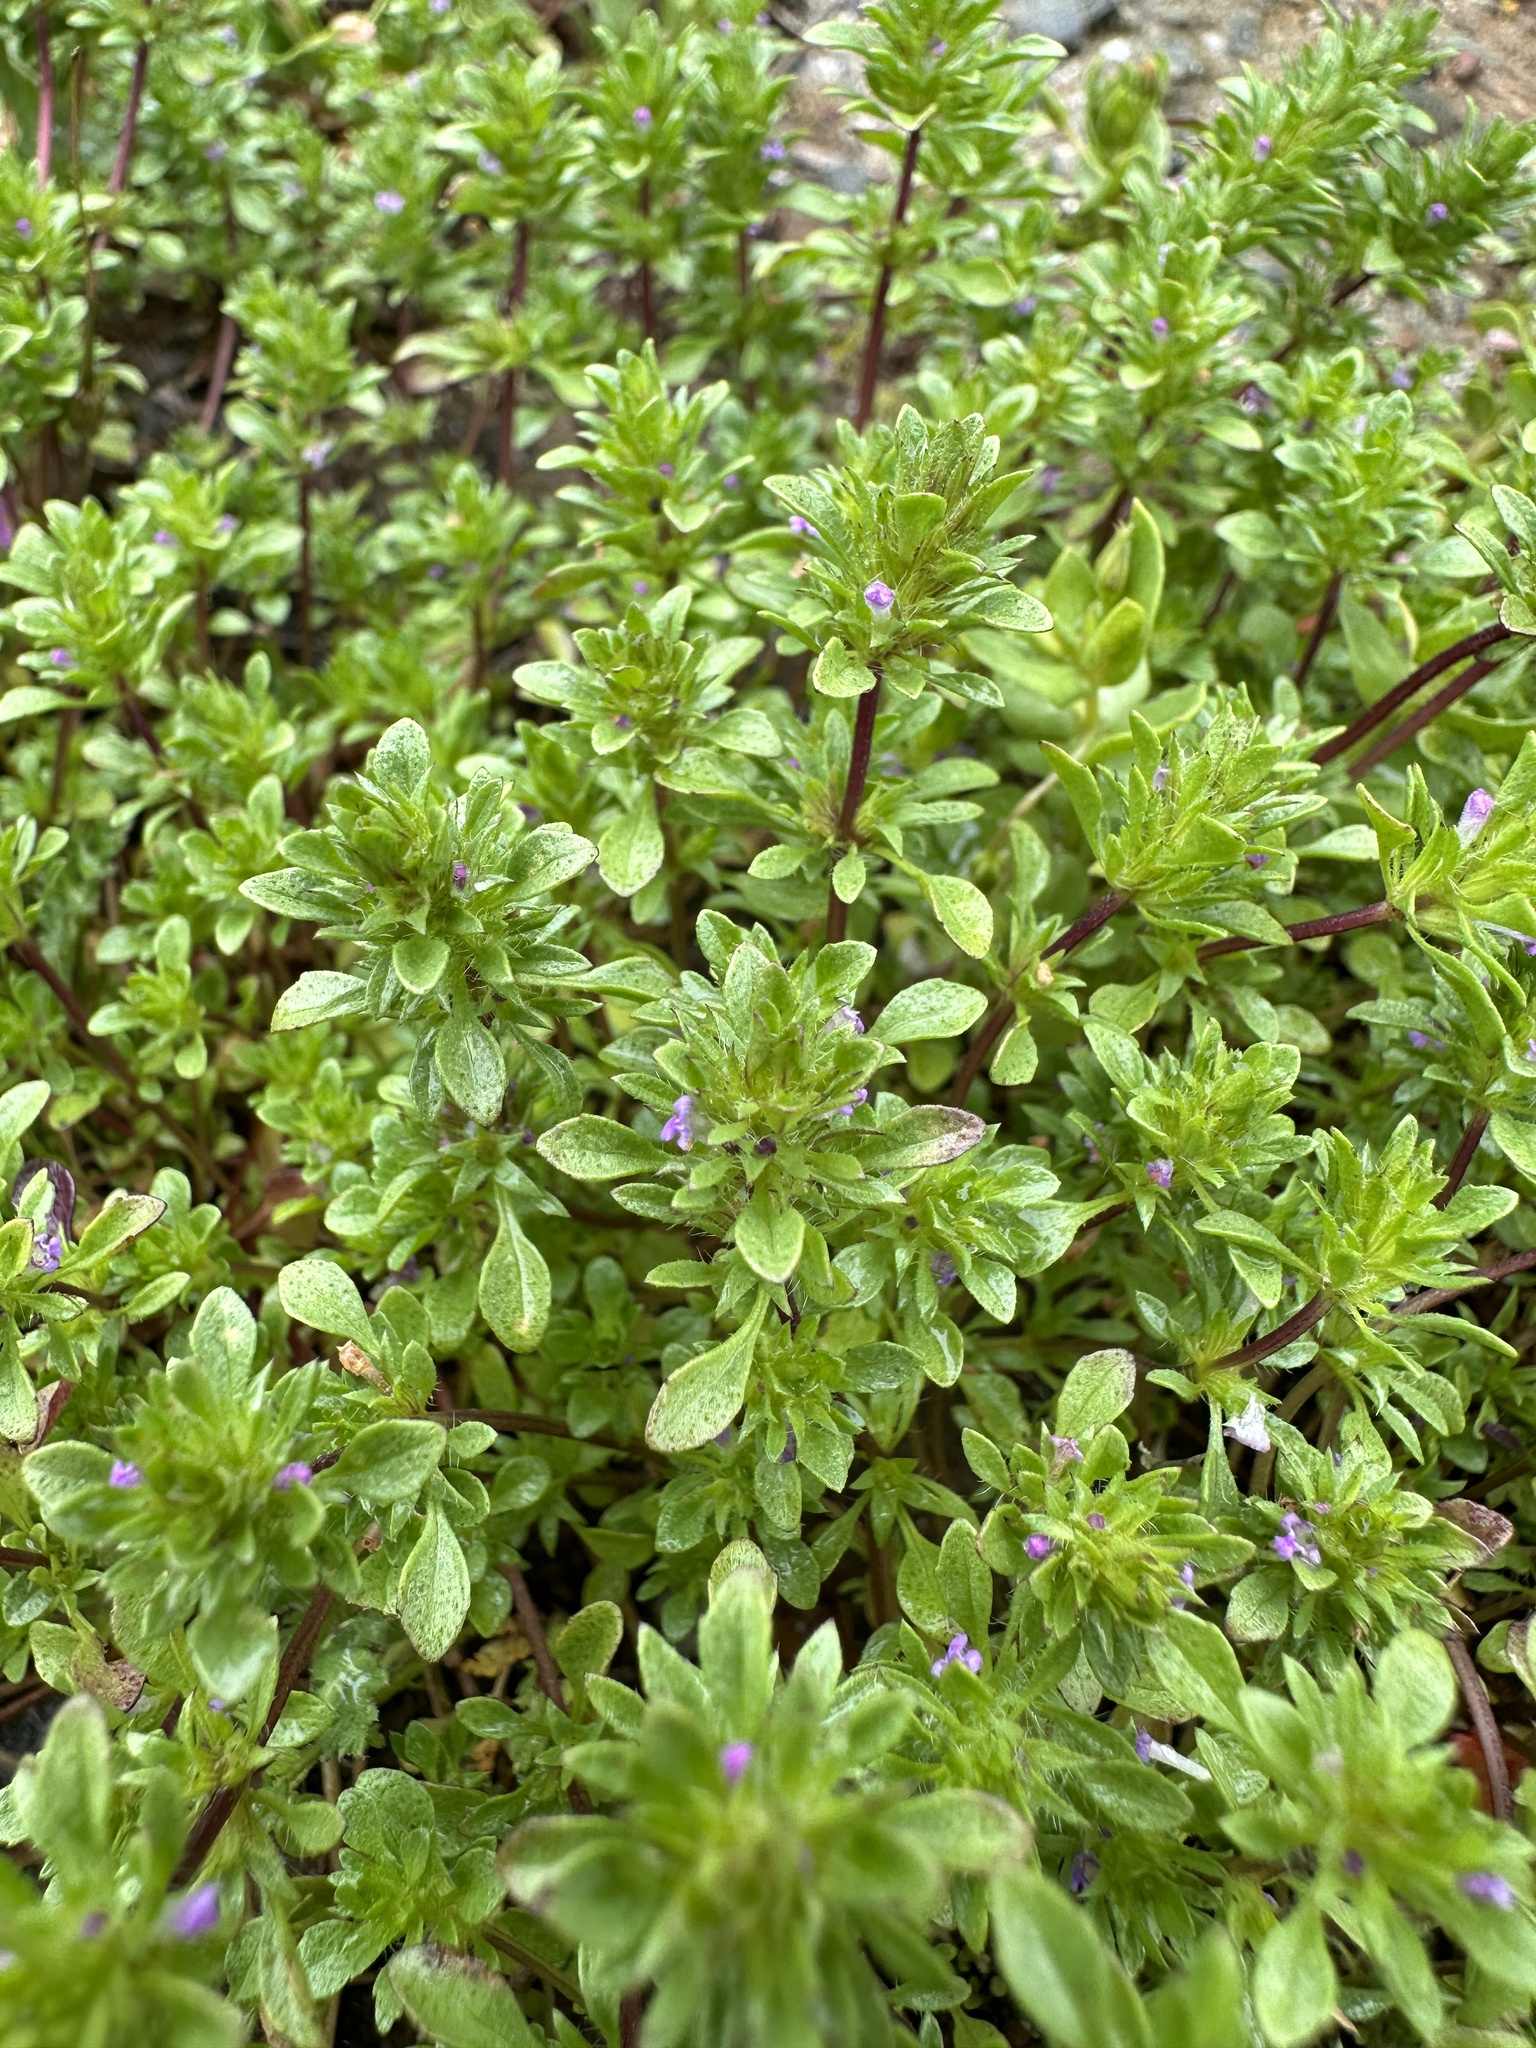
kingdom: Plantae
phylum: Tracheophyta
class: Magnoliopsida
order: Lamiales
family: Lamiaceae
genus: Pogogyne
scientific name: Pogogyne serpylloides
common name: Thymeleaf mesamint
